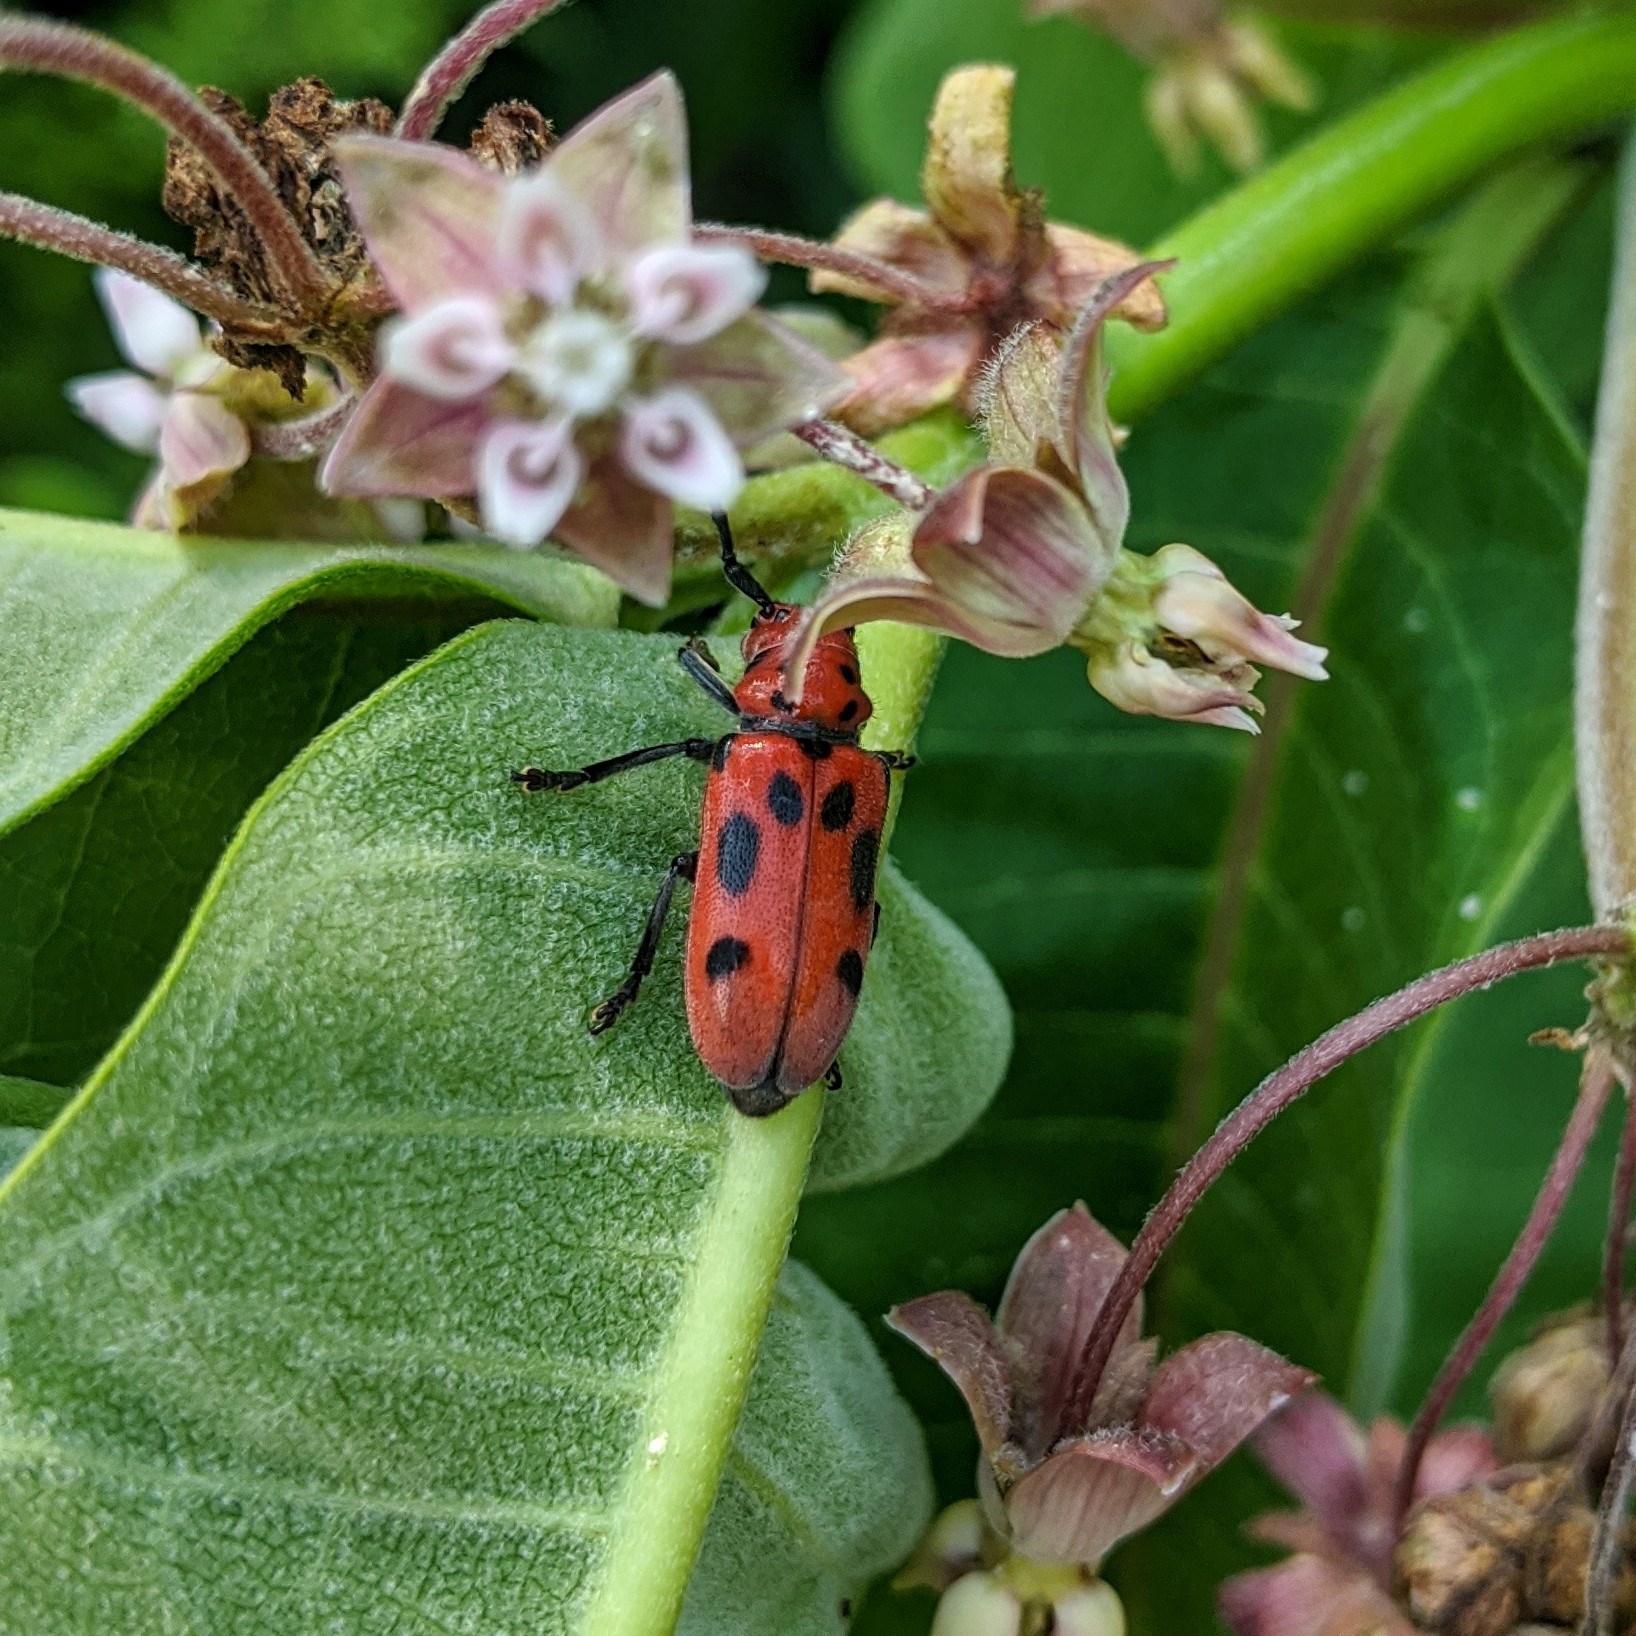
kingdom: Animalia
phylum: Arthropoda
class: Insecta
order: Coleoptera
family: Cerambycidae
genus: Tetraopes
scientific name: Tetraopes tetrophthalmus
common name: Red milkweed beetle
